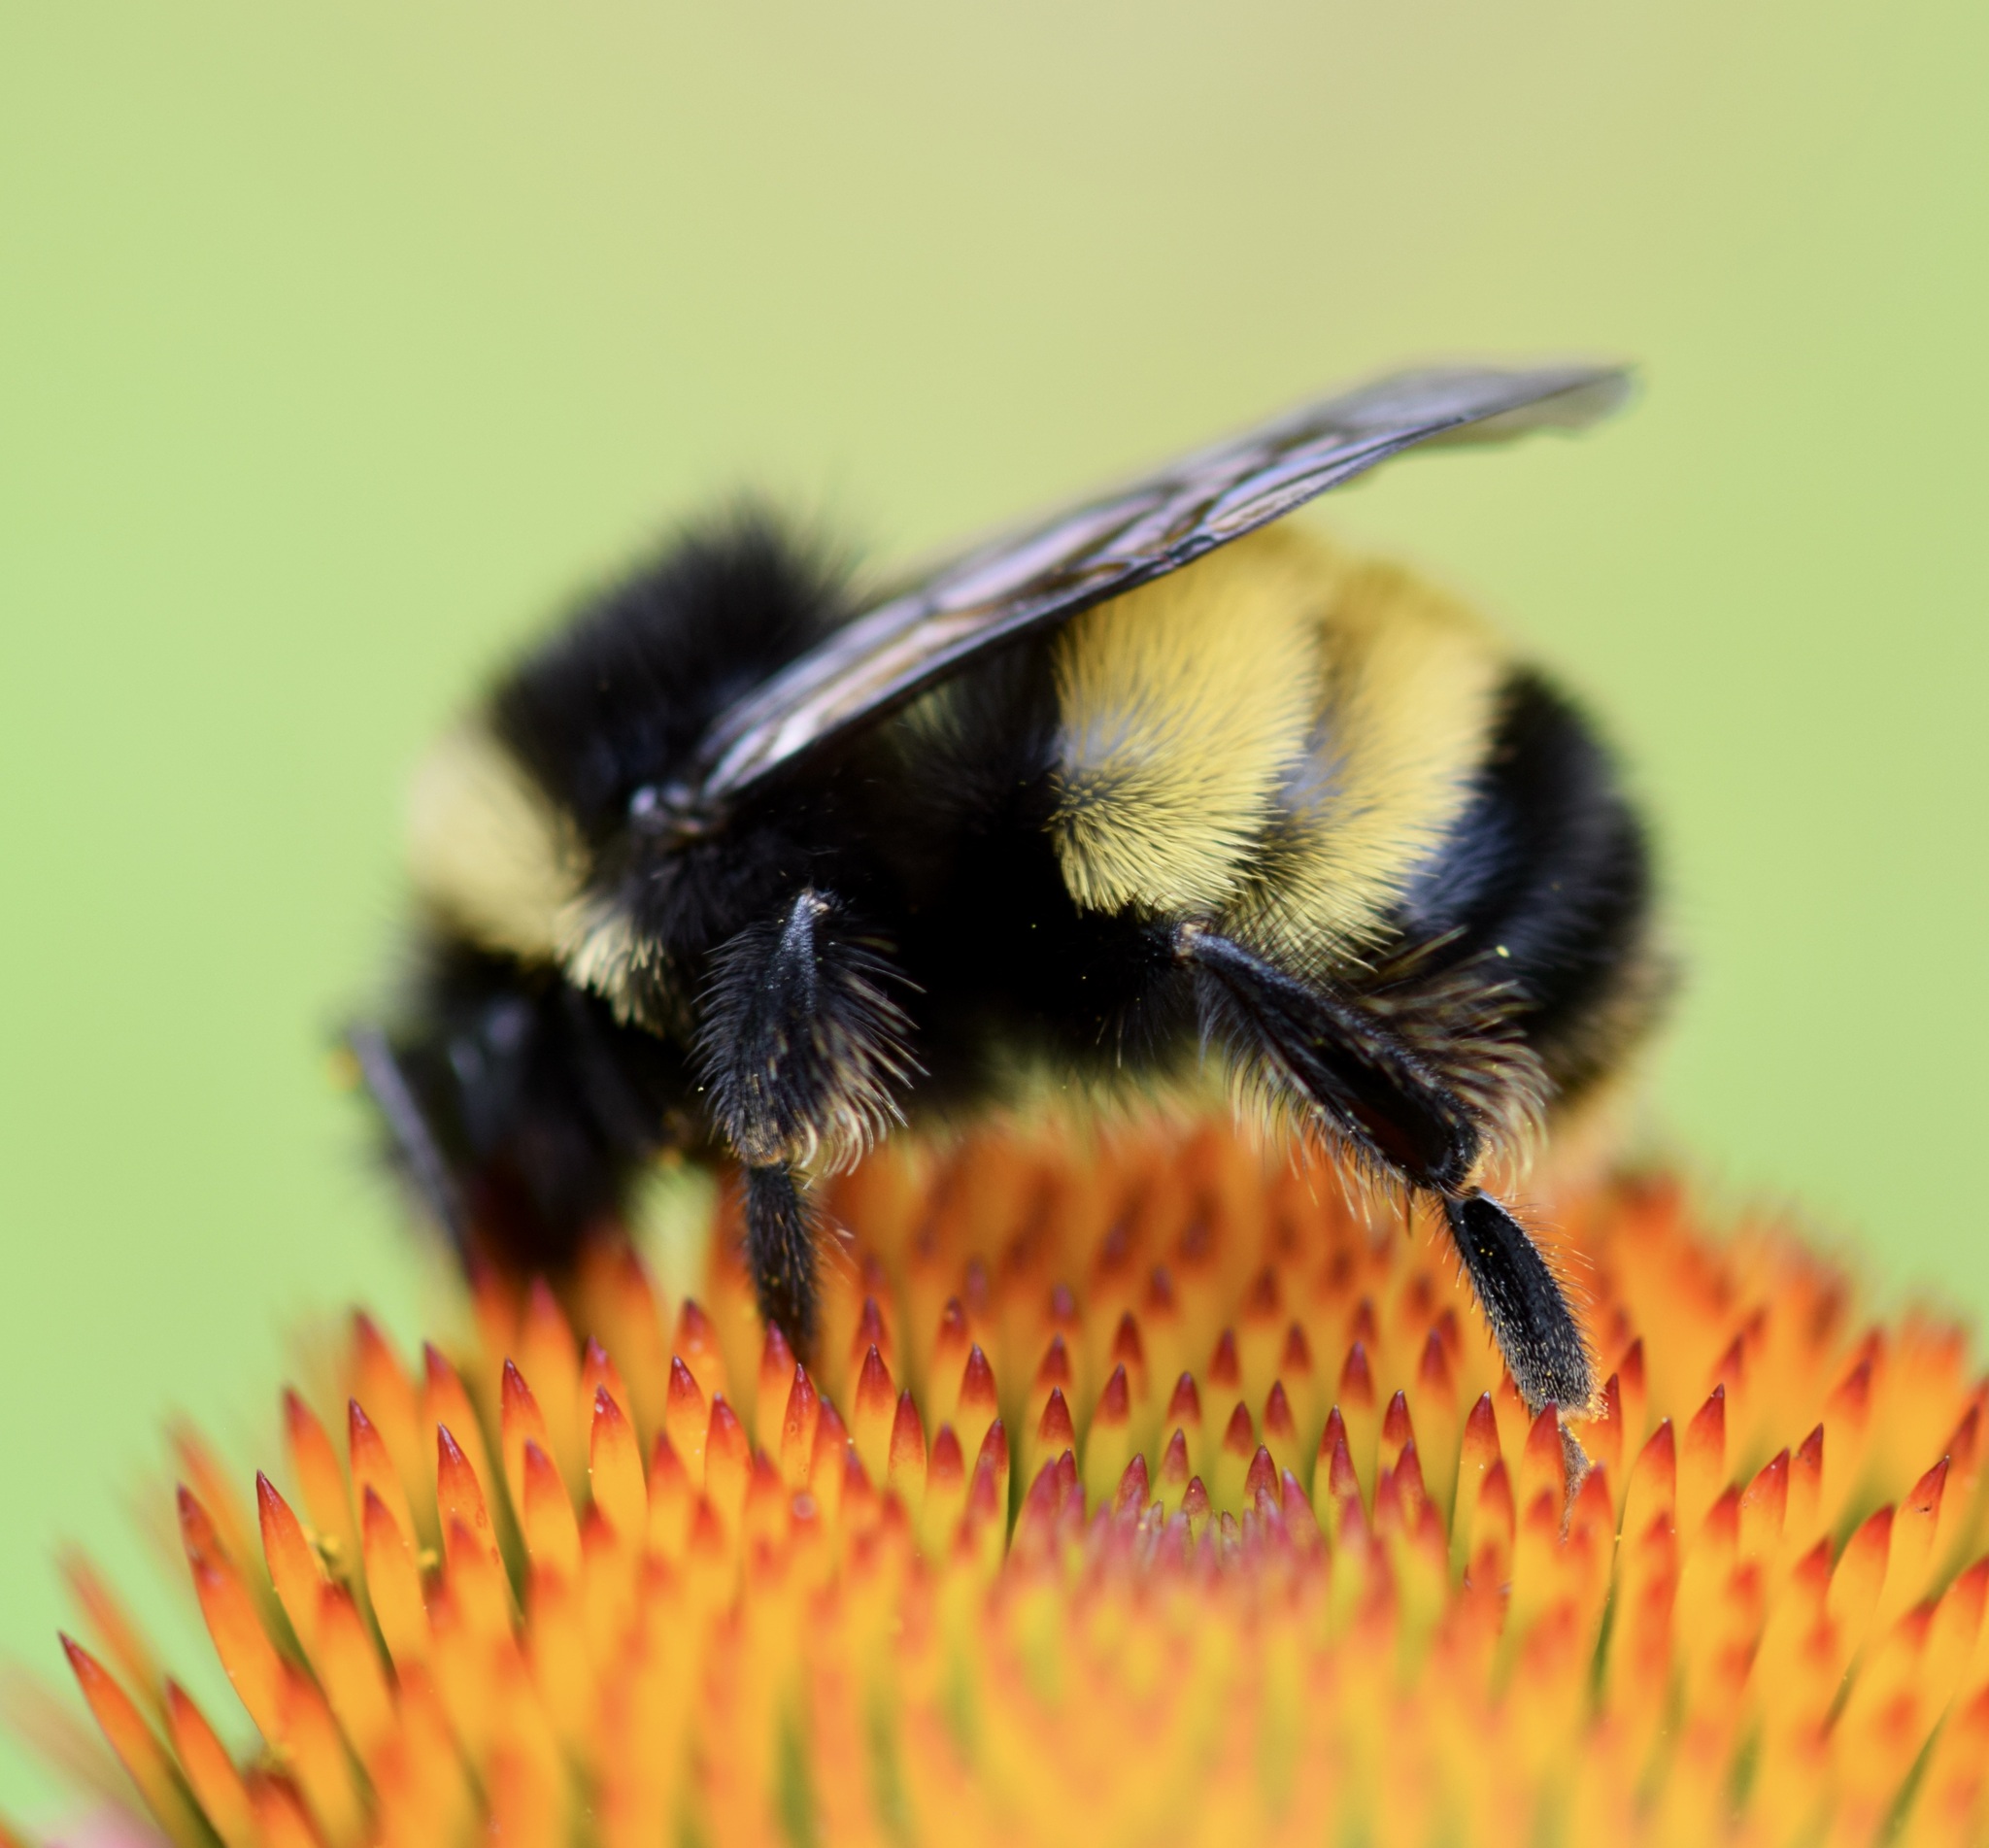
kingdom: Animalia
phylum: Arthropoda
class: Insecta
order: Hymenoptera
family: Apidae
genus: Bombus
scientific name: Bombus terricola
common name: Yellow-banded bumble bee
